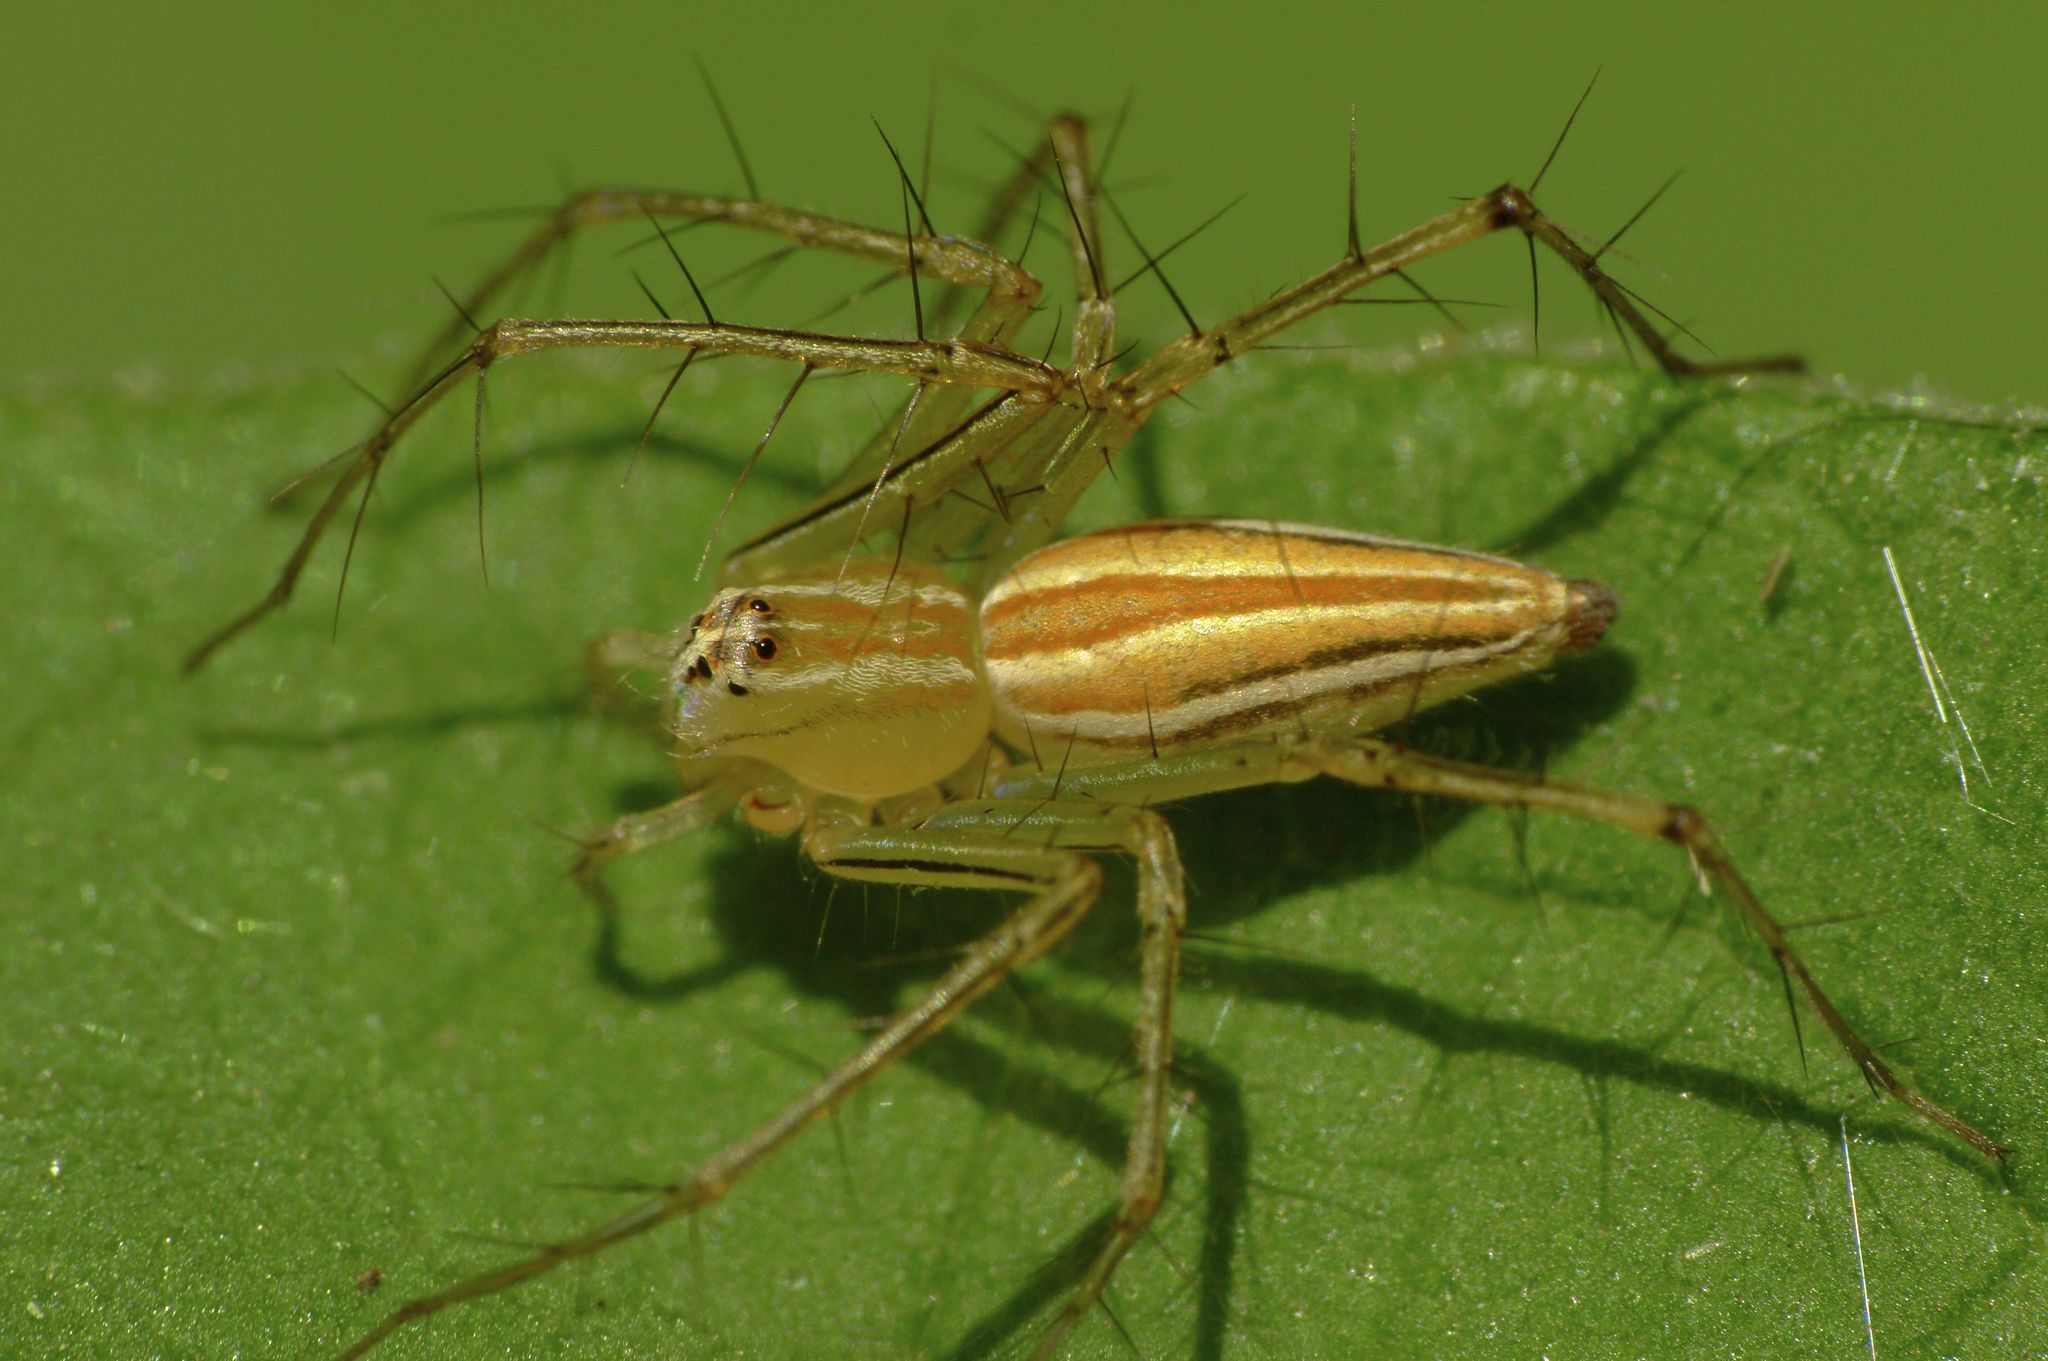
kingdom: Animalia
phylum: Arthropoda
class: Arachnida
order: Araneae
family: Oxyopidae
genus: Oxyopes
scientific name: Oxyopes macilentus
